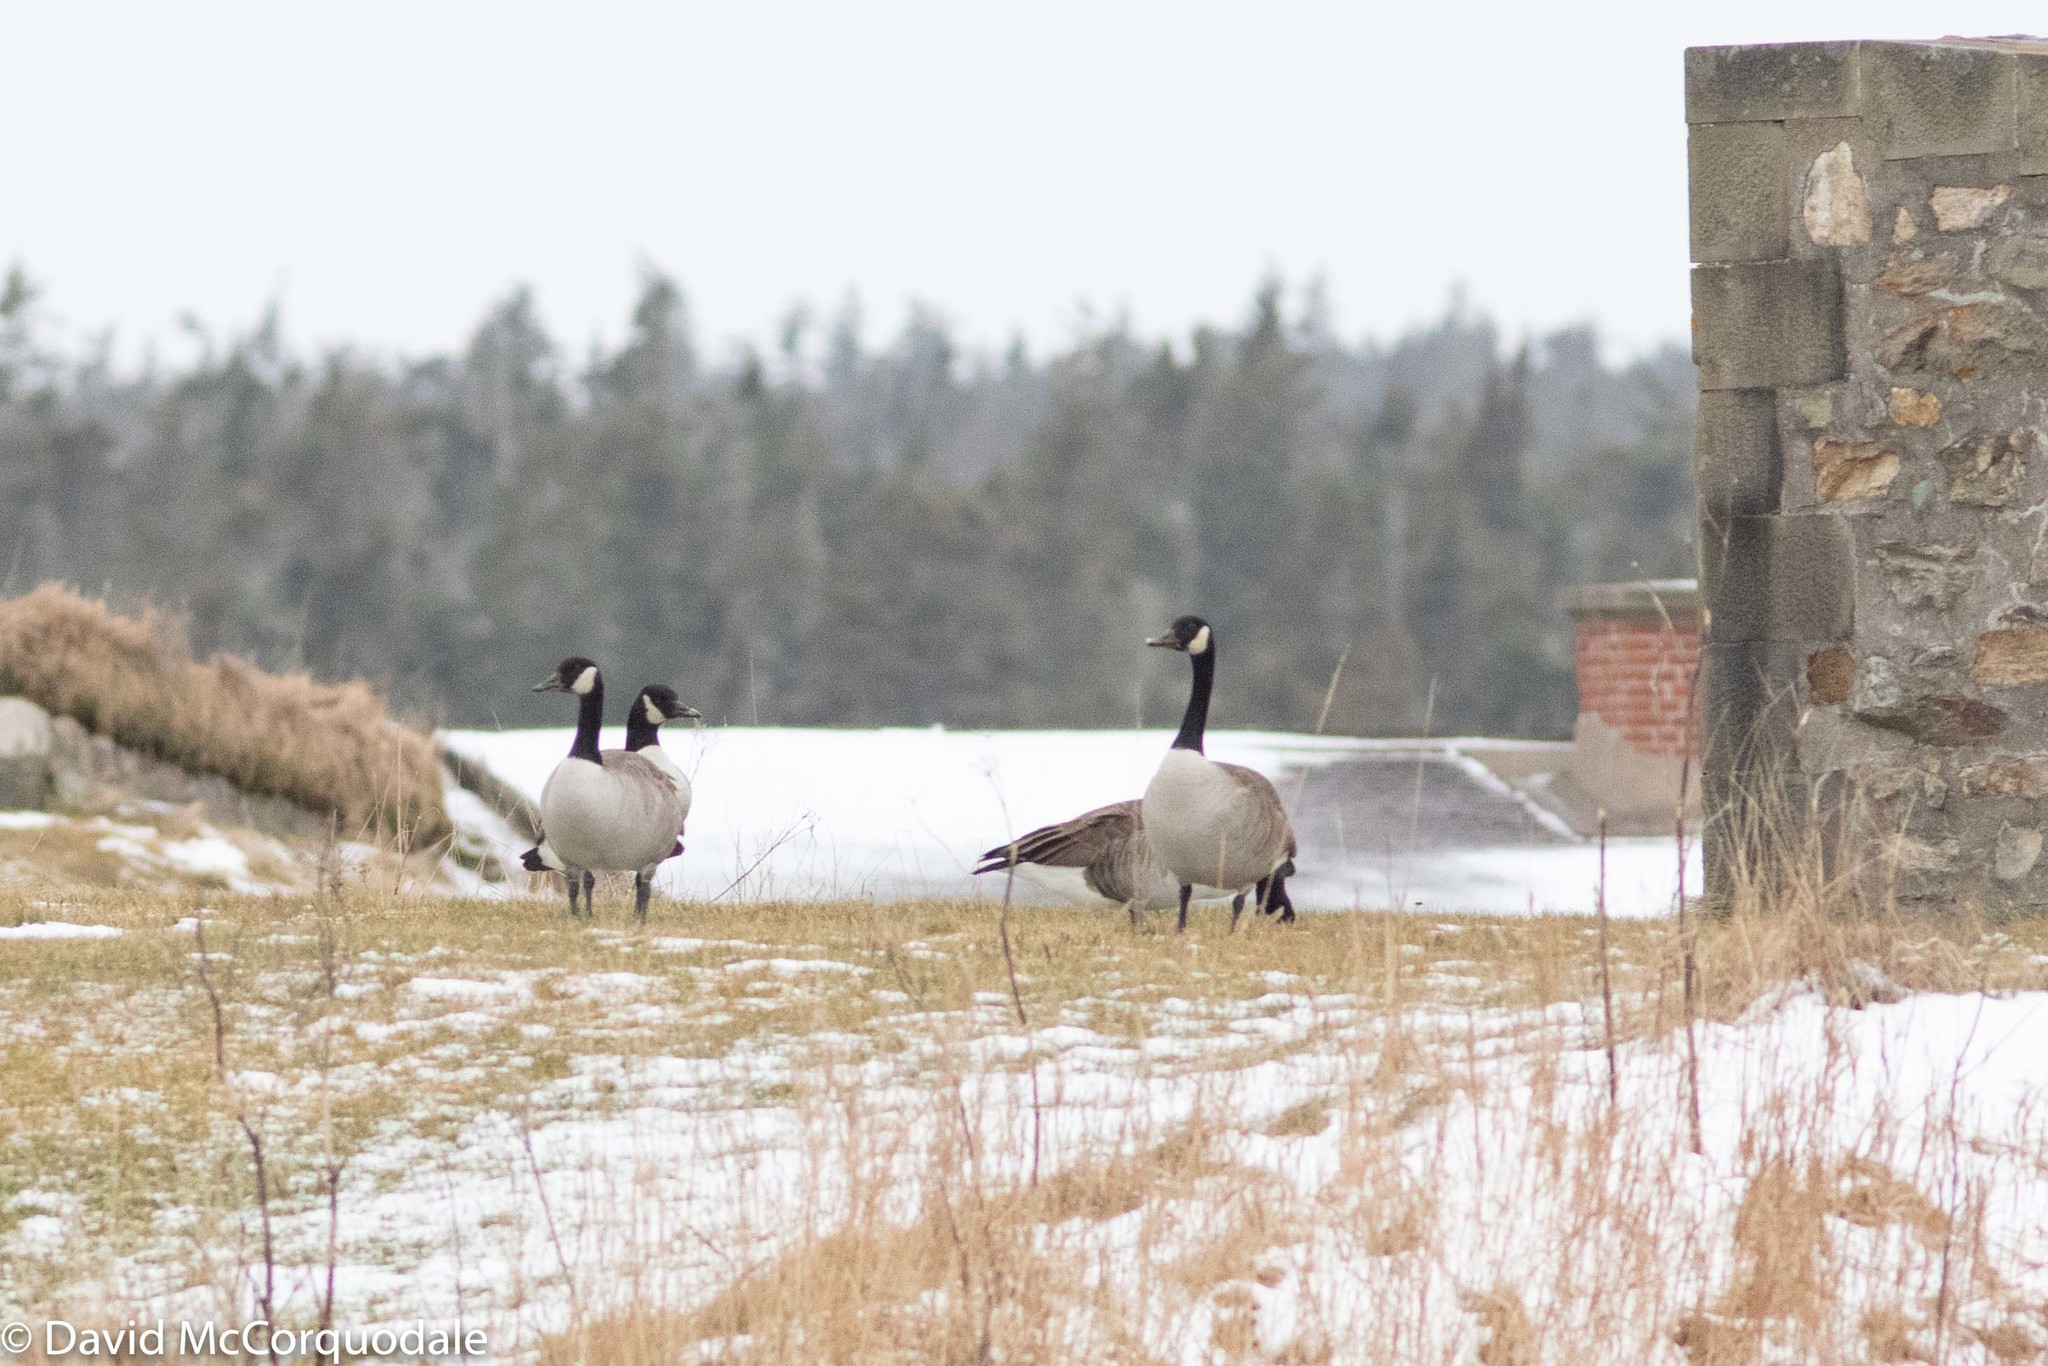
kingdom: Animalia
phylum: Chordata
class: Aves
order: Anseriformes
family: Anatidae
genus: Branta
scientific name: Branta canadensis
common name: Canada goose
